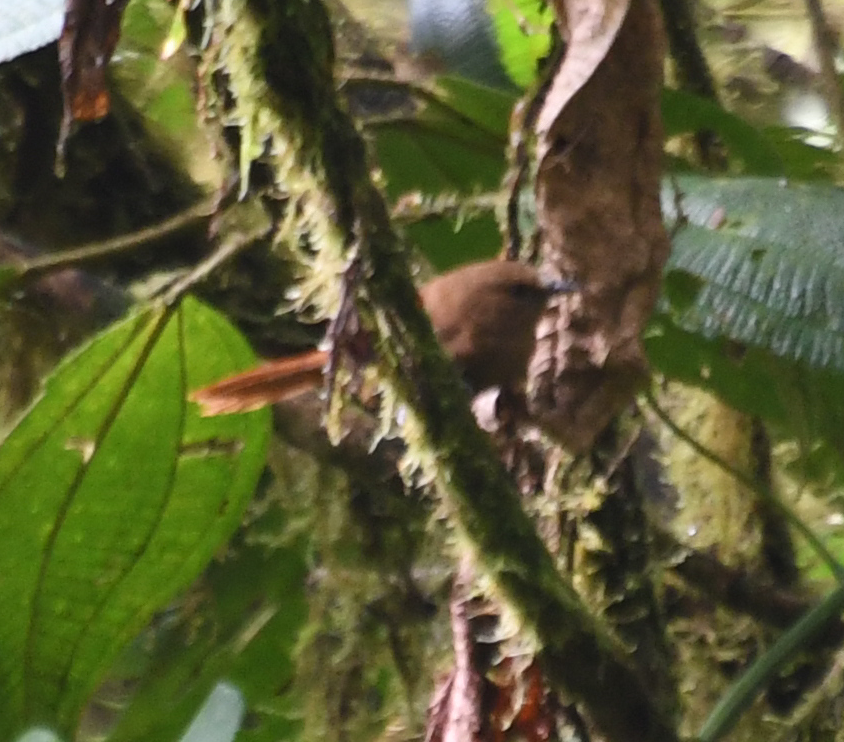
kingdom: Animalia
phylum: Chordata
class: Aves
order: Passeriformes
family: Troglodytidae
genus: Cinnycerthia
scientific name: Cinnycerthia olivascens
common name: Sharpe's wren
